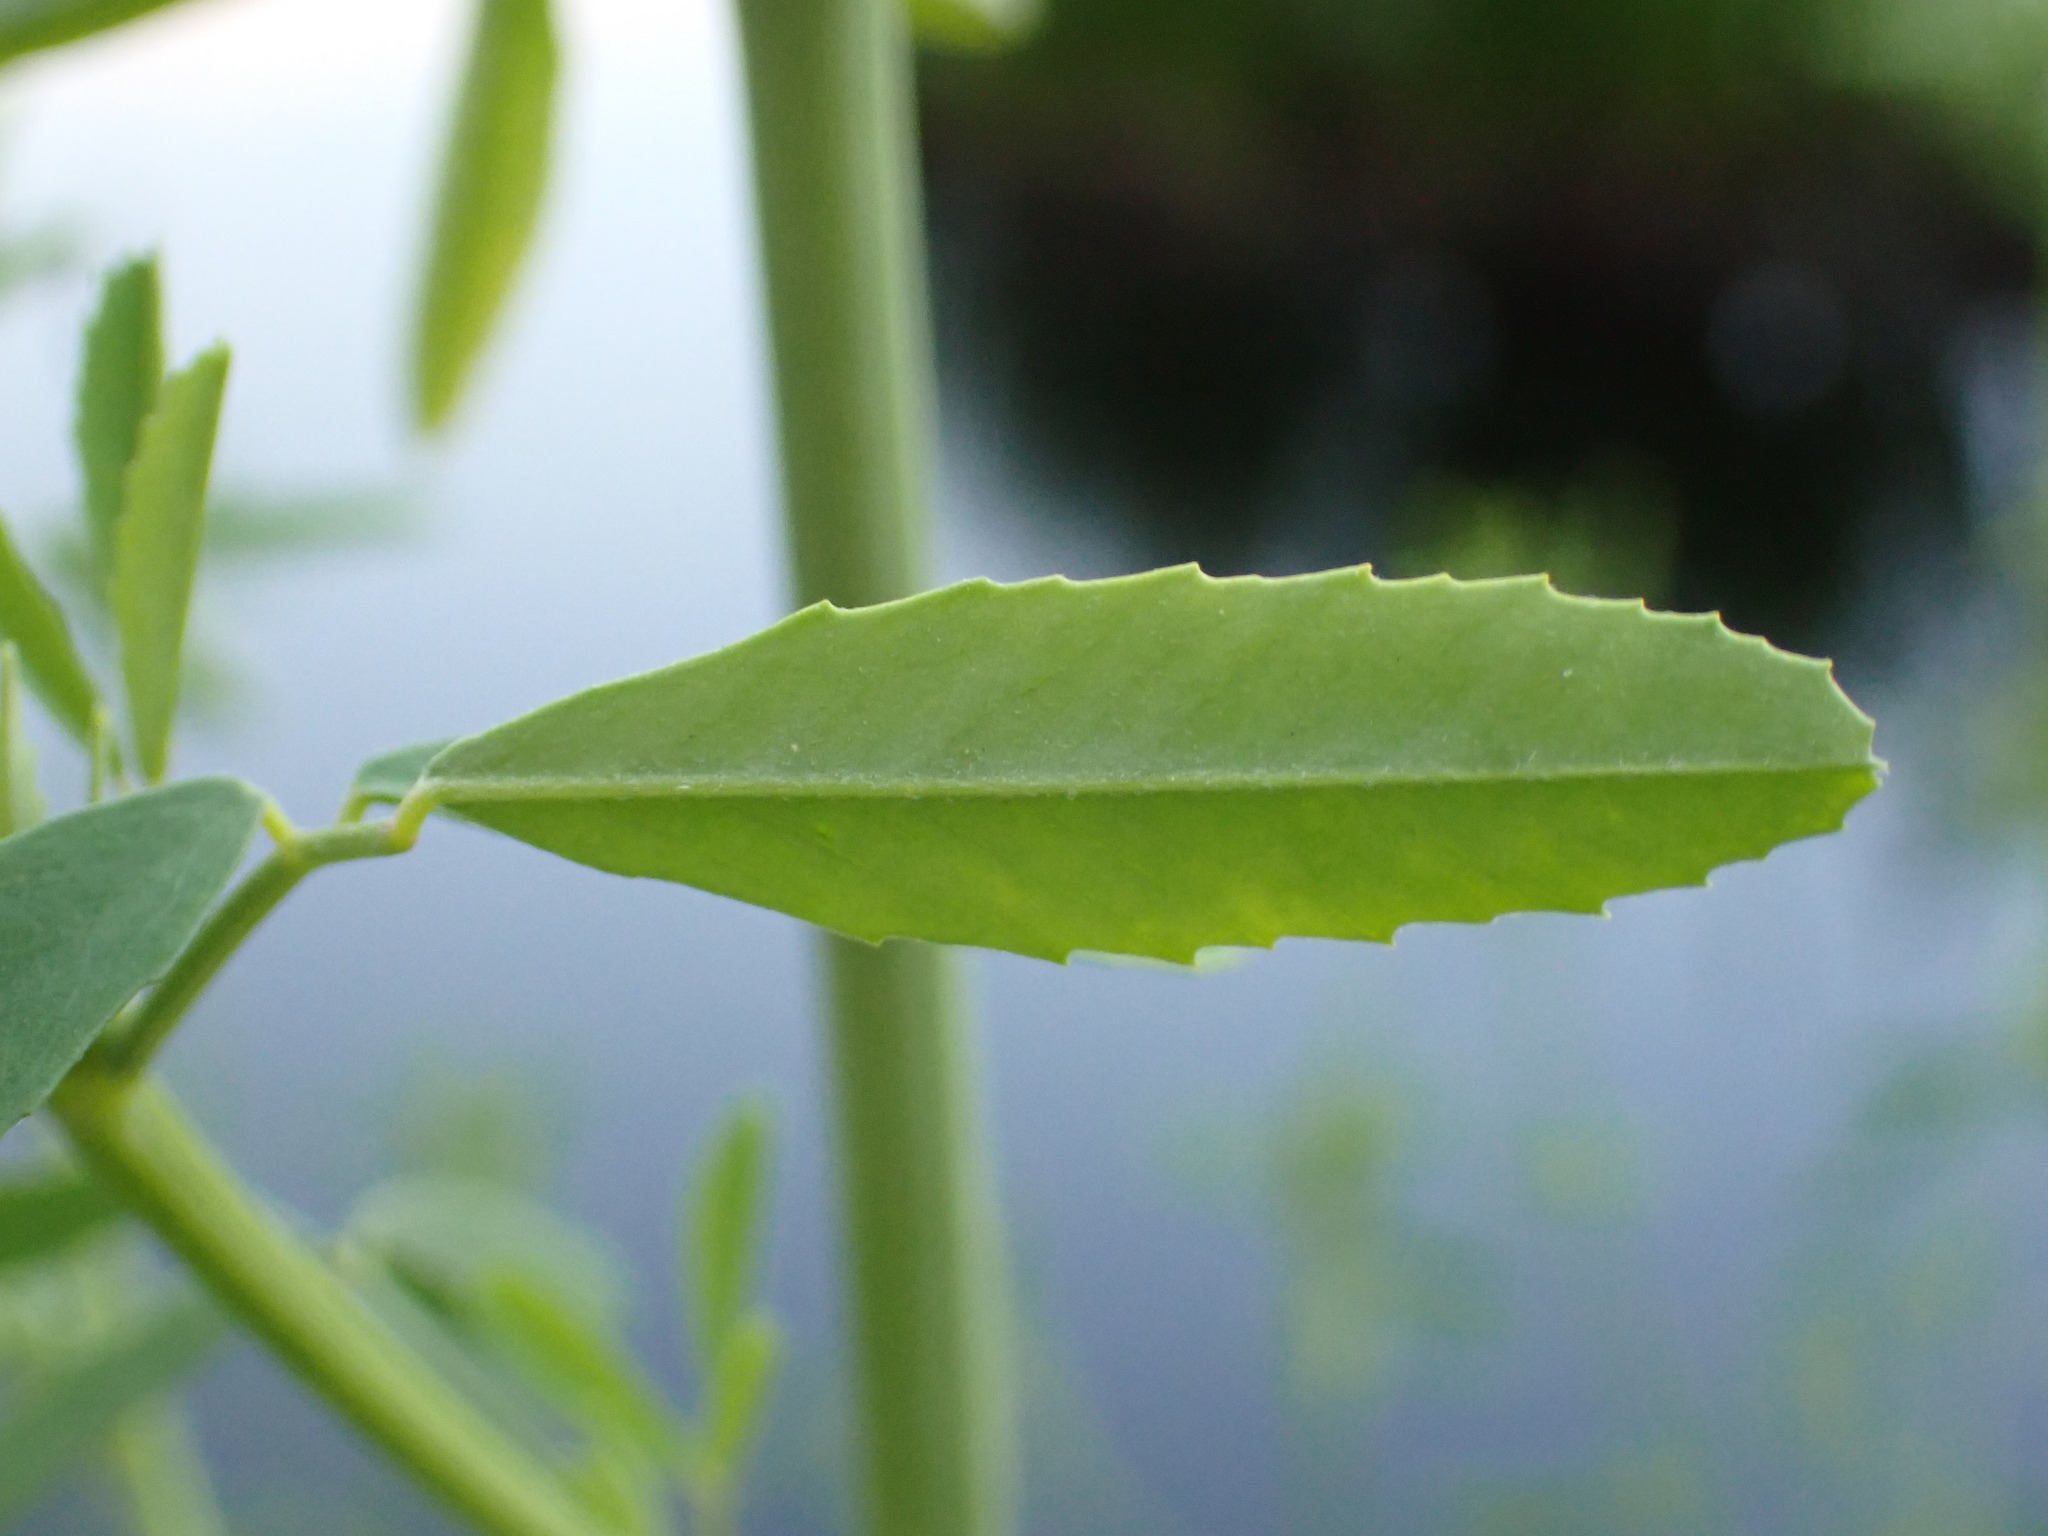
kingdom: Plantae
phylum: Tracheophyta
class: Magnoliopsida
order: Fabales
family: Fabaceae
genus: Melilotus
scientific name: Melilotus albus
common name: White melilot
